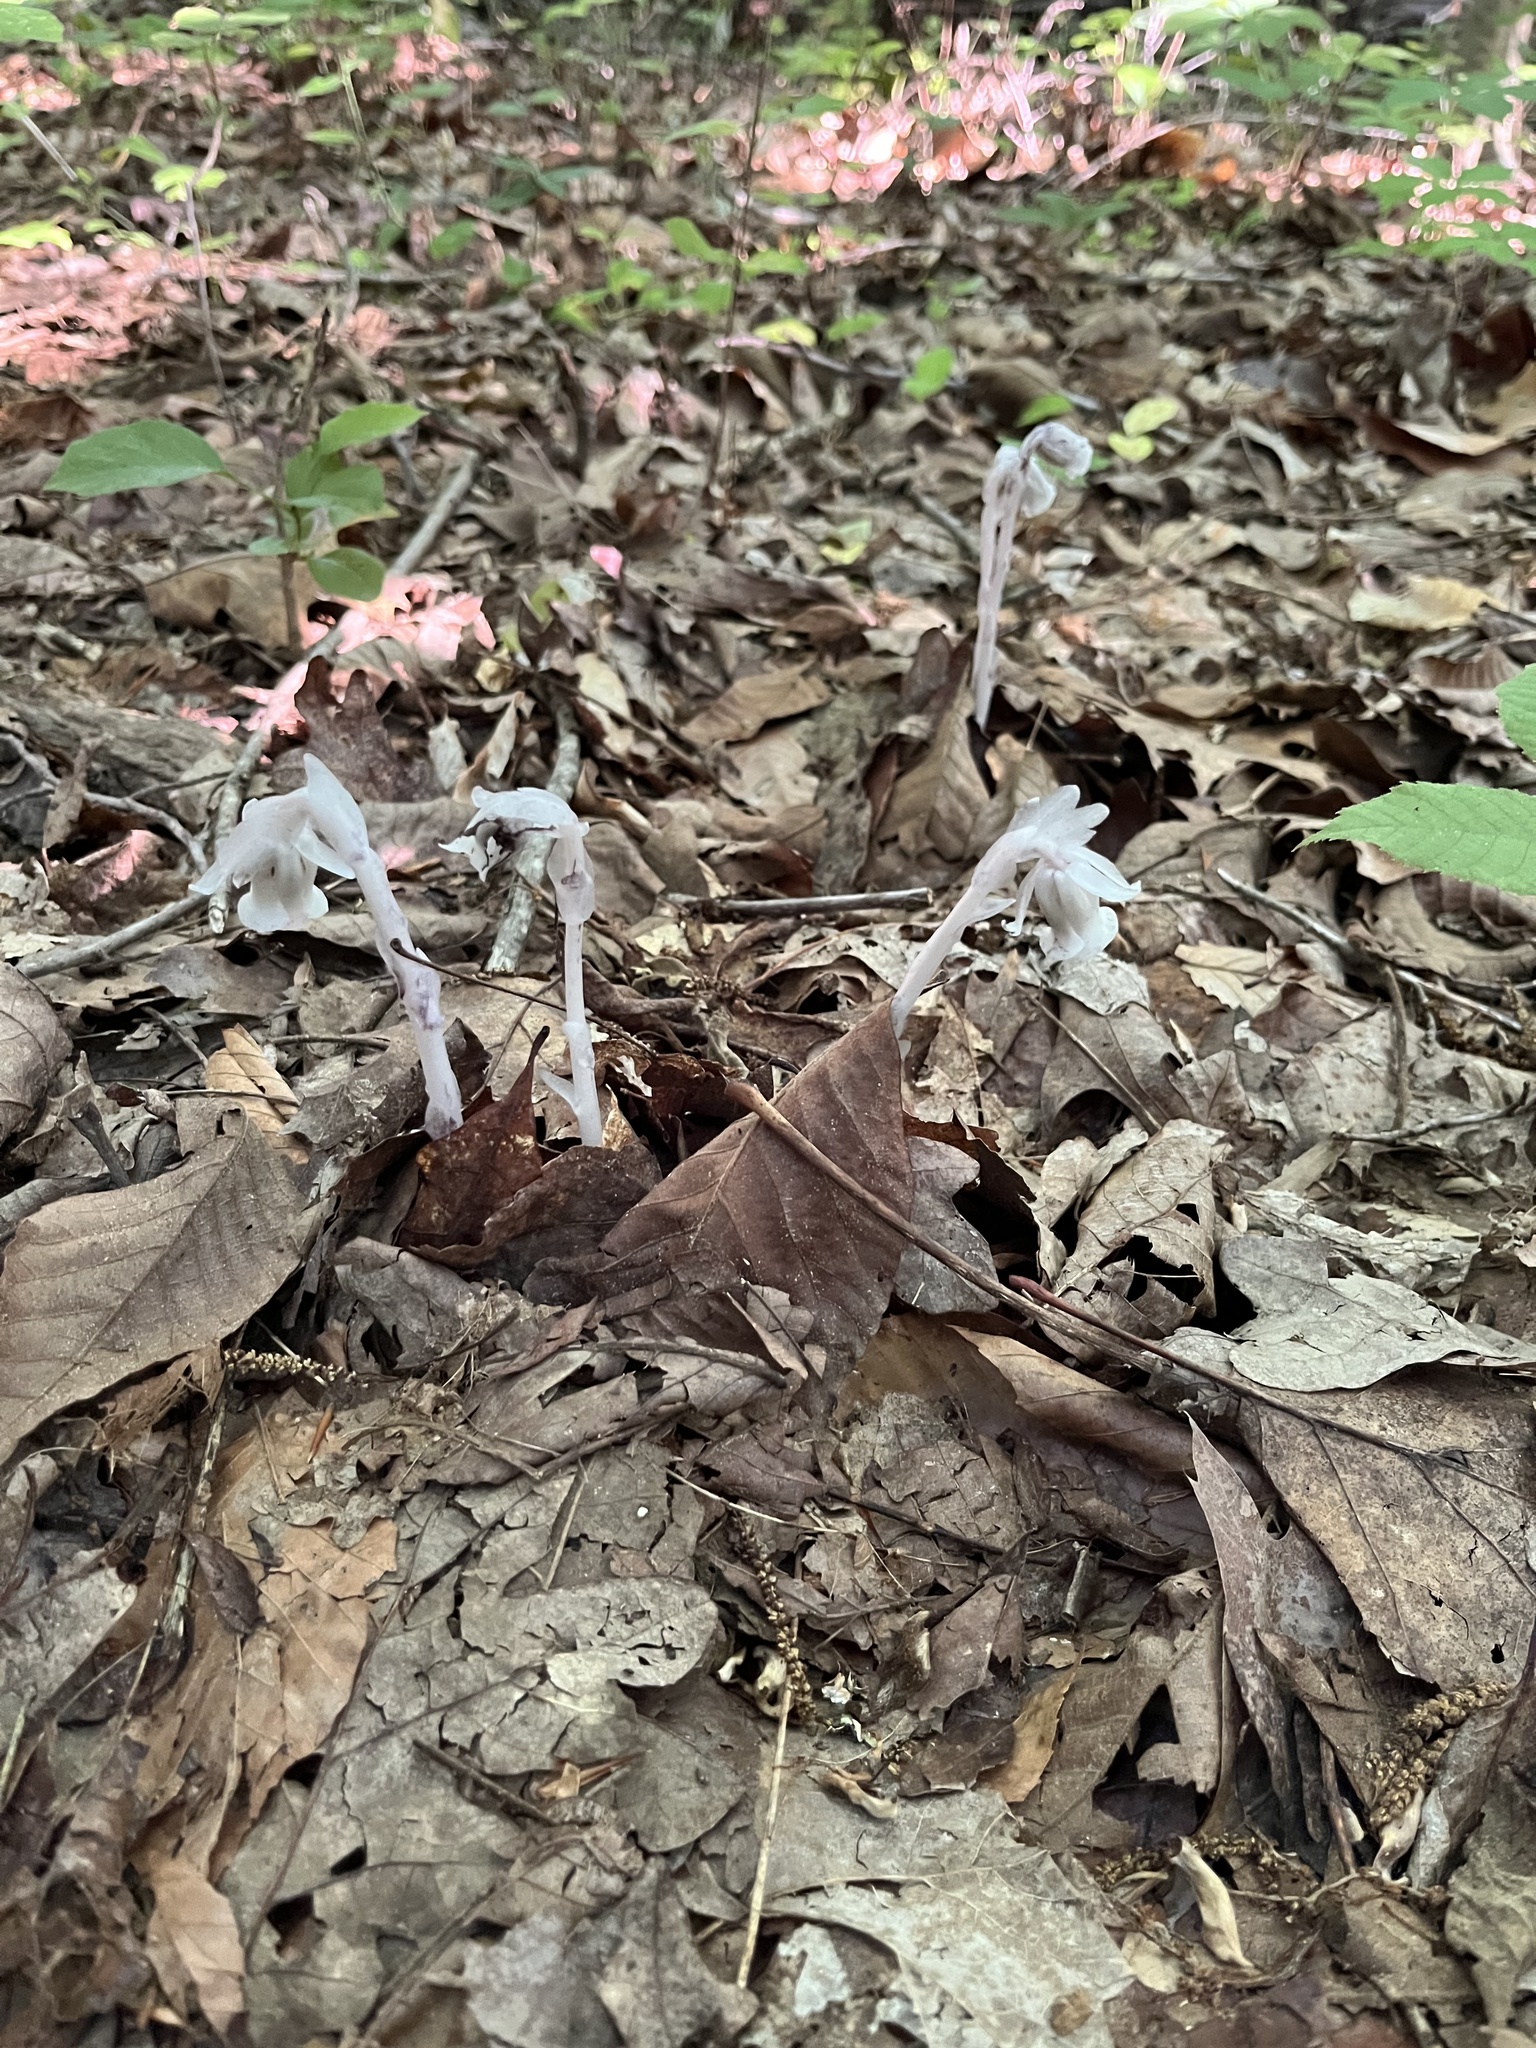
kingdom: Plantae
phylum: Tracheophyta
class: Magnoliopsida
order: Ericales
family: Ericaceae
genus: Monotropa
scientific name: Monotropa uniflora
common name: Convulsion root
